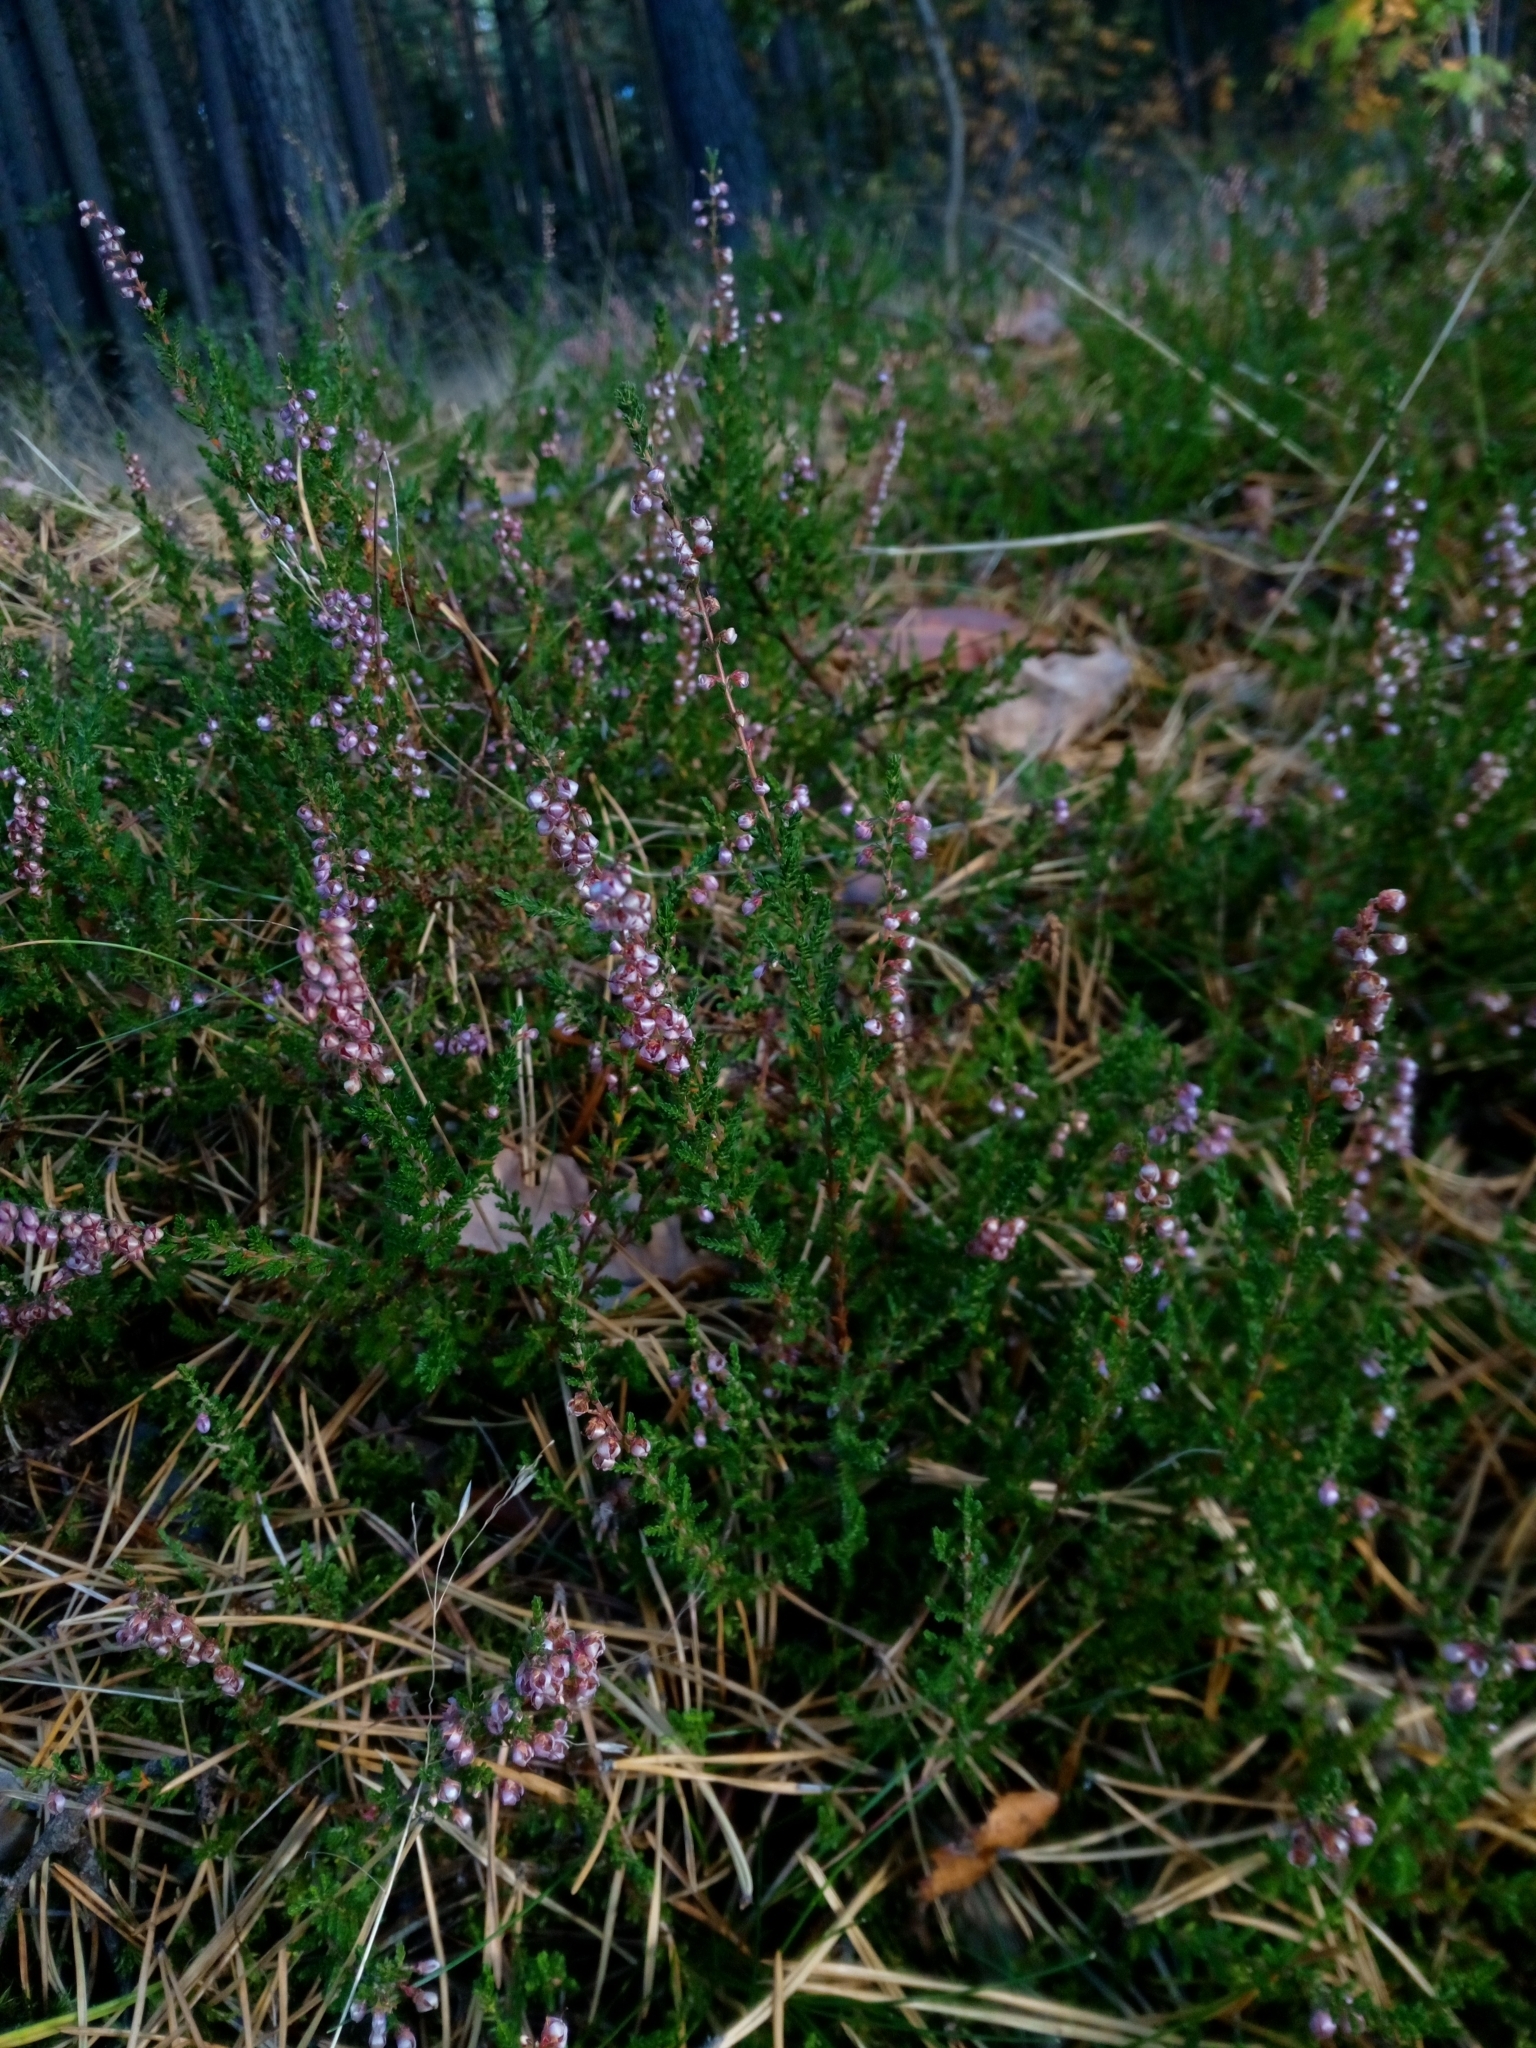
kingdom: Plantae
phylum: Tracheophyta
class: Magnoliopsida
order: Ericales
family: Ericaceae
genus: Calluna
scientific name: Calluna vulgaris
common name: Heather
